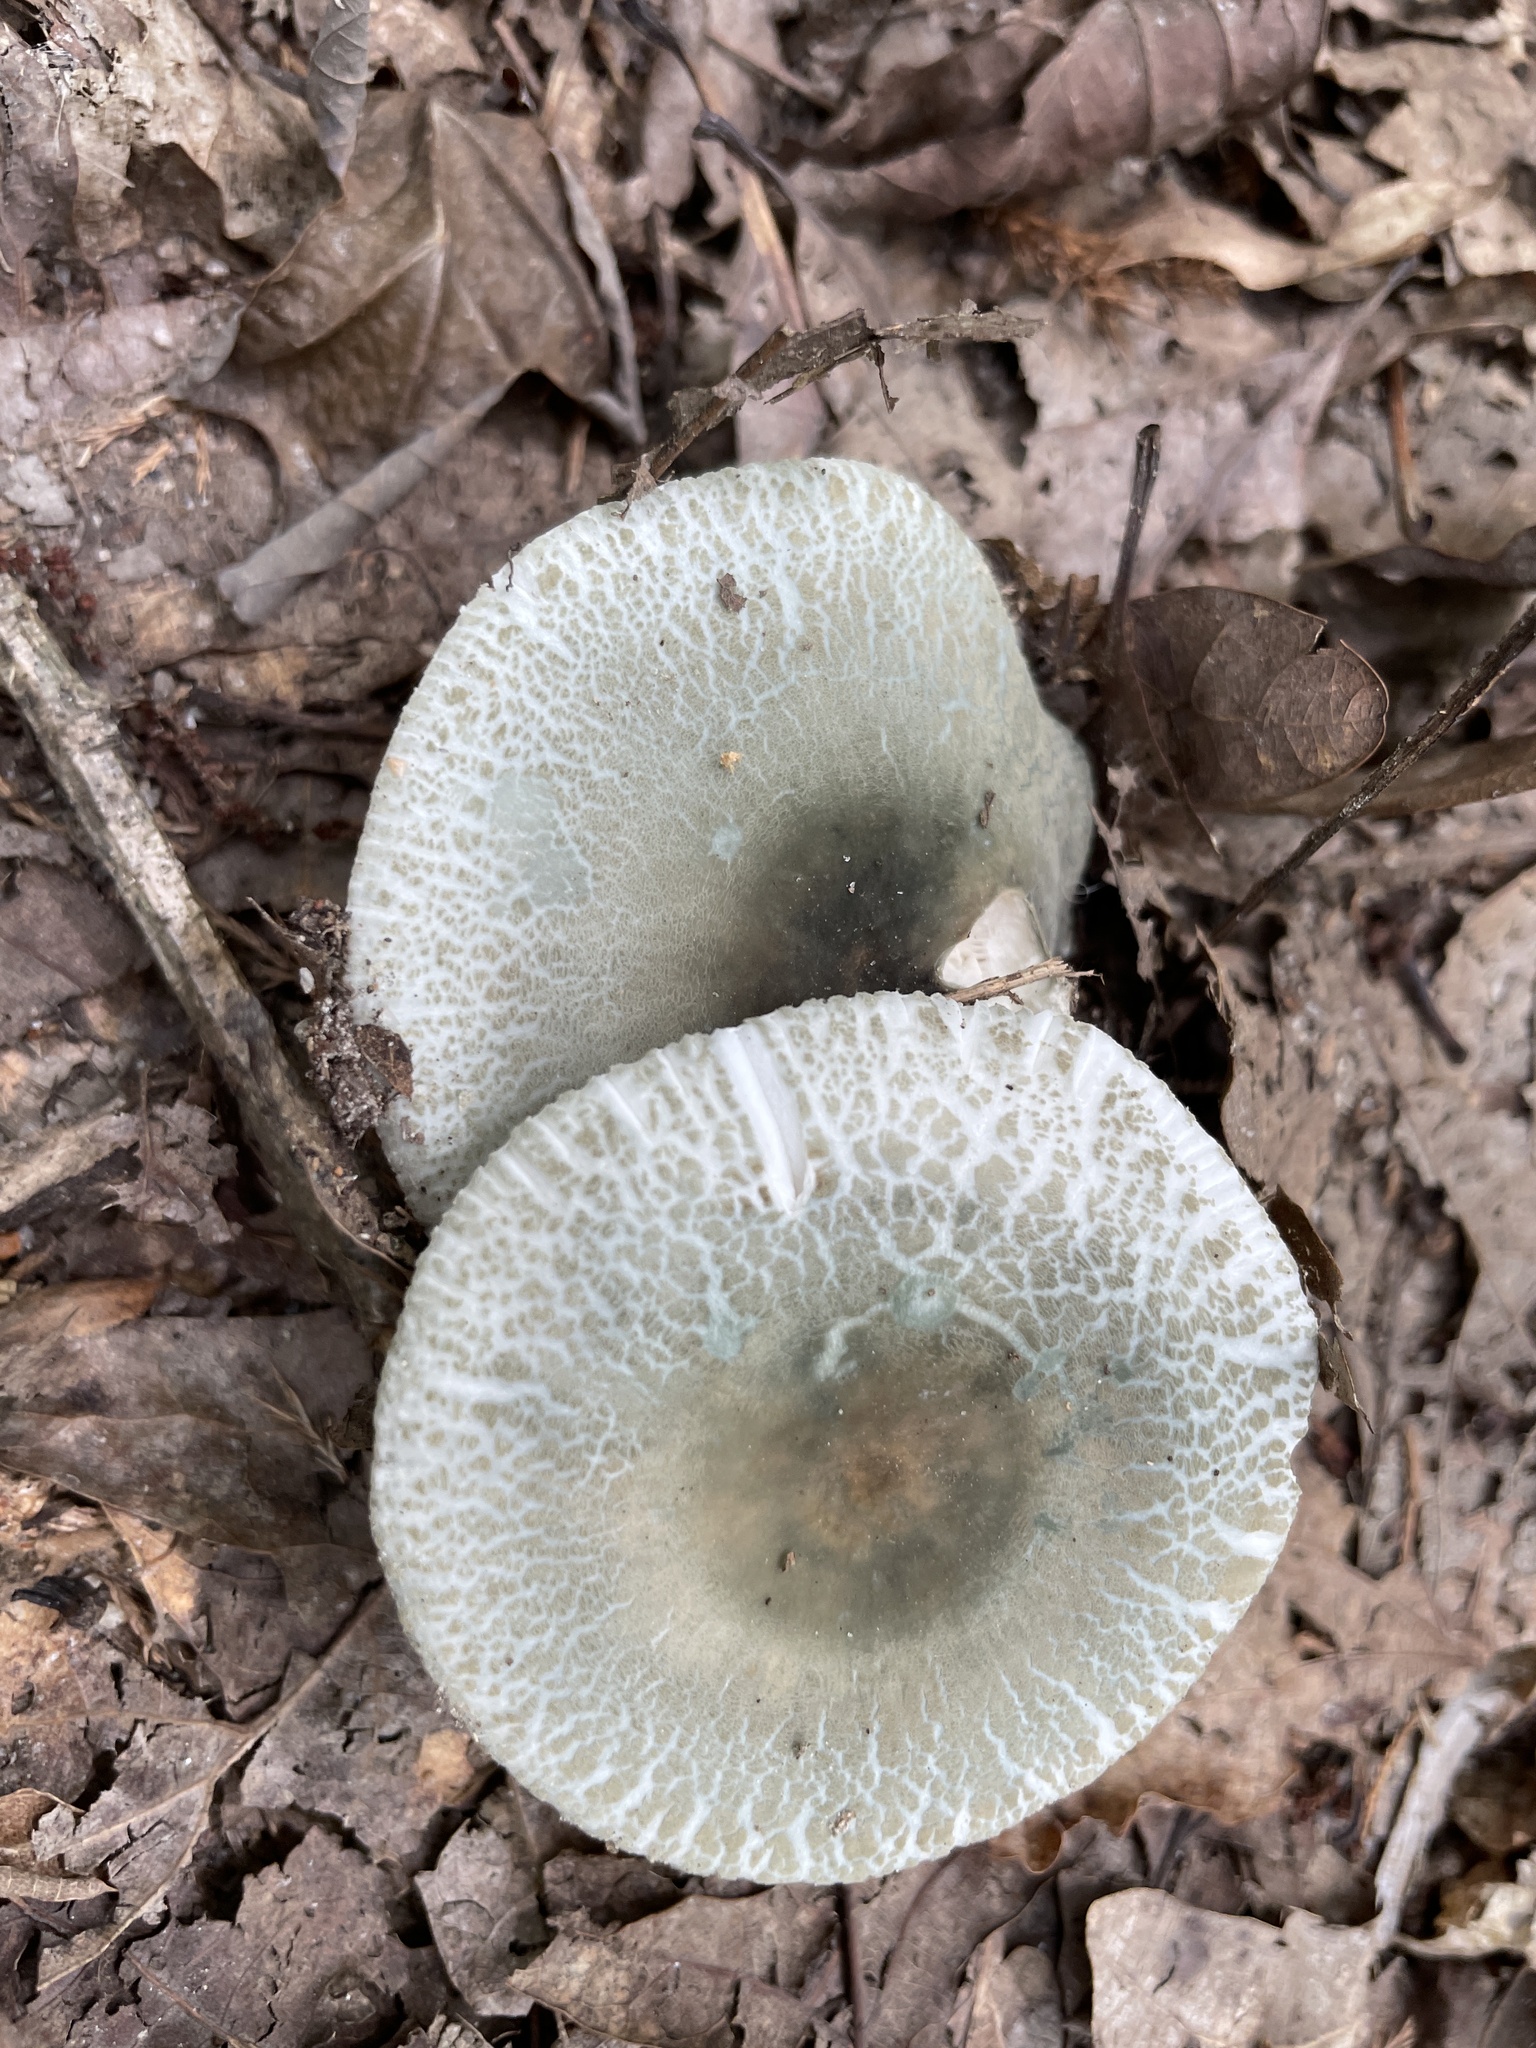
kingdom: Fungi
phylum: Basidiomycota
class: Agaricomycetes
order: Russulales
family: Russulaceae
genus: Russula
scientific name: Russula parvovirescens
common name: Blue-green cracking russula
